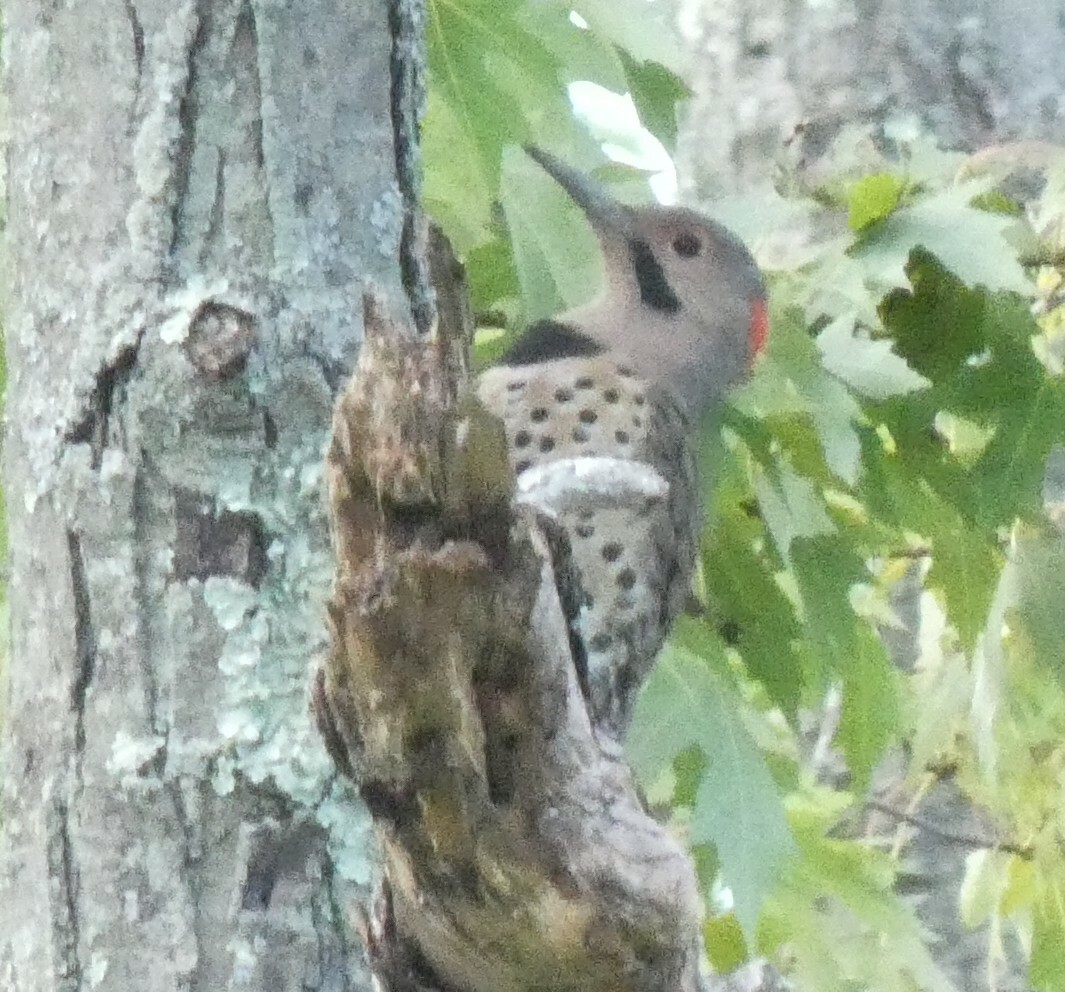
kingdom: Animalia
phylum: Chordata
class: Aves
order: Piciformes
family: Picidae
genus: Colaptes
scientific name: Colaptes auratus
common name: Northern flicker
